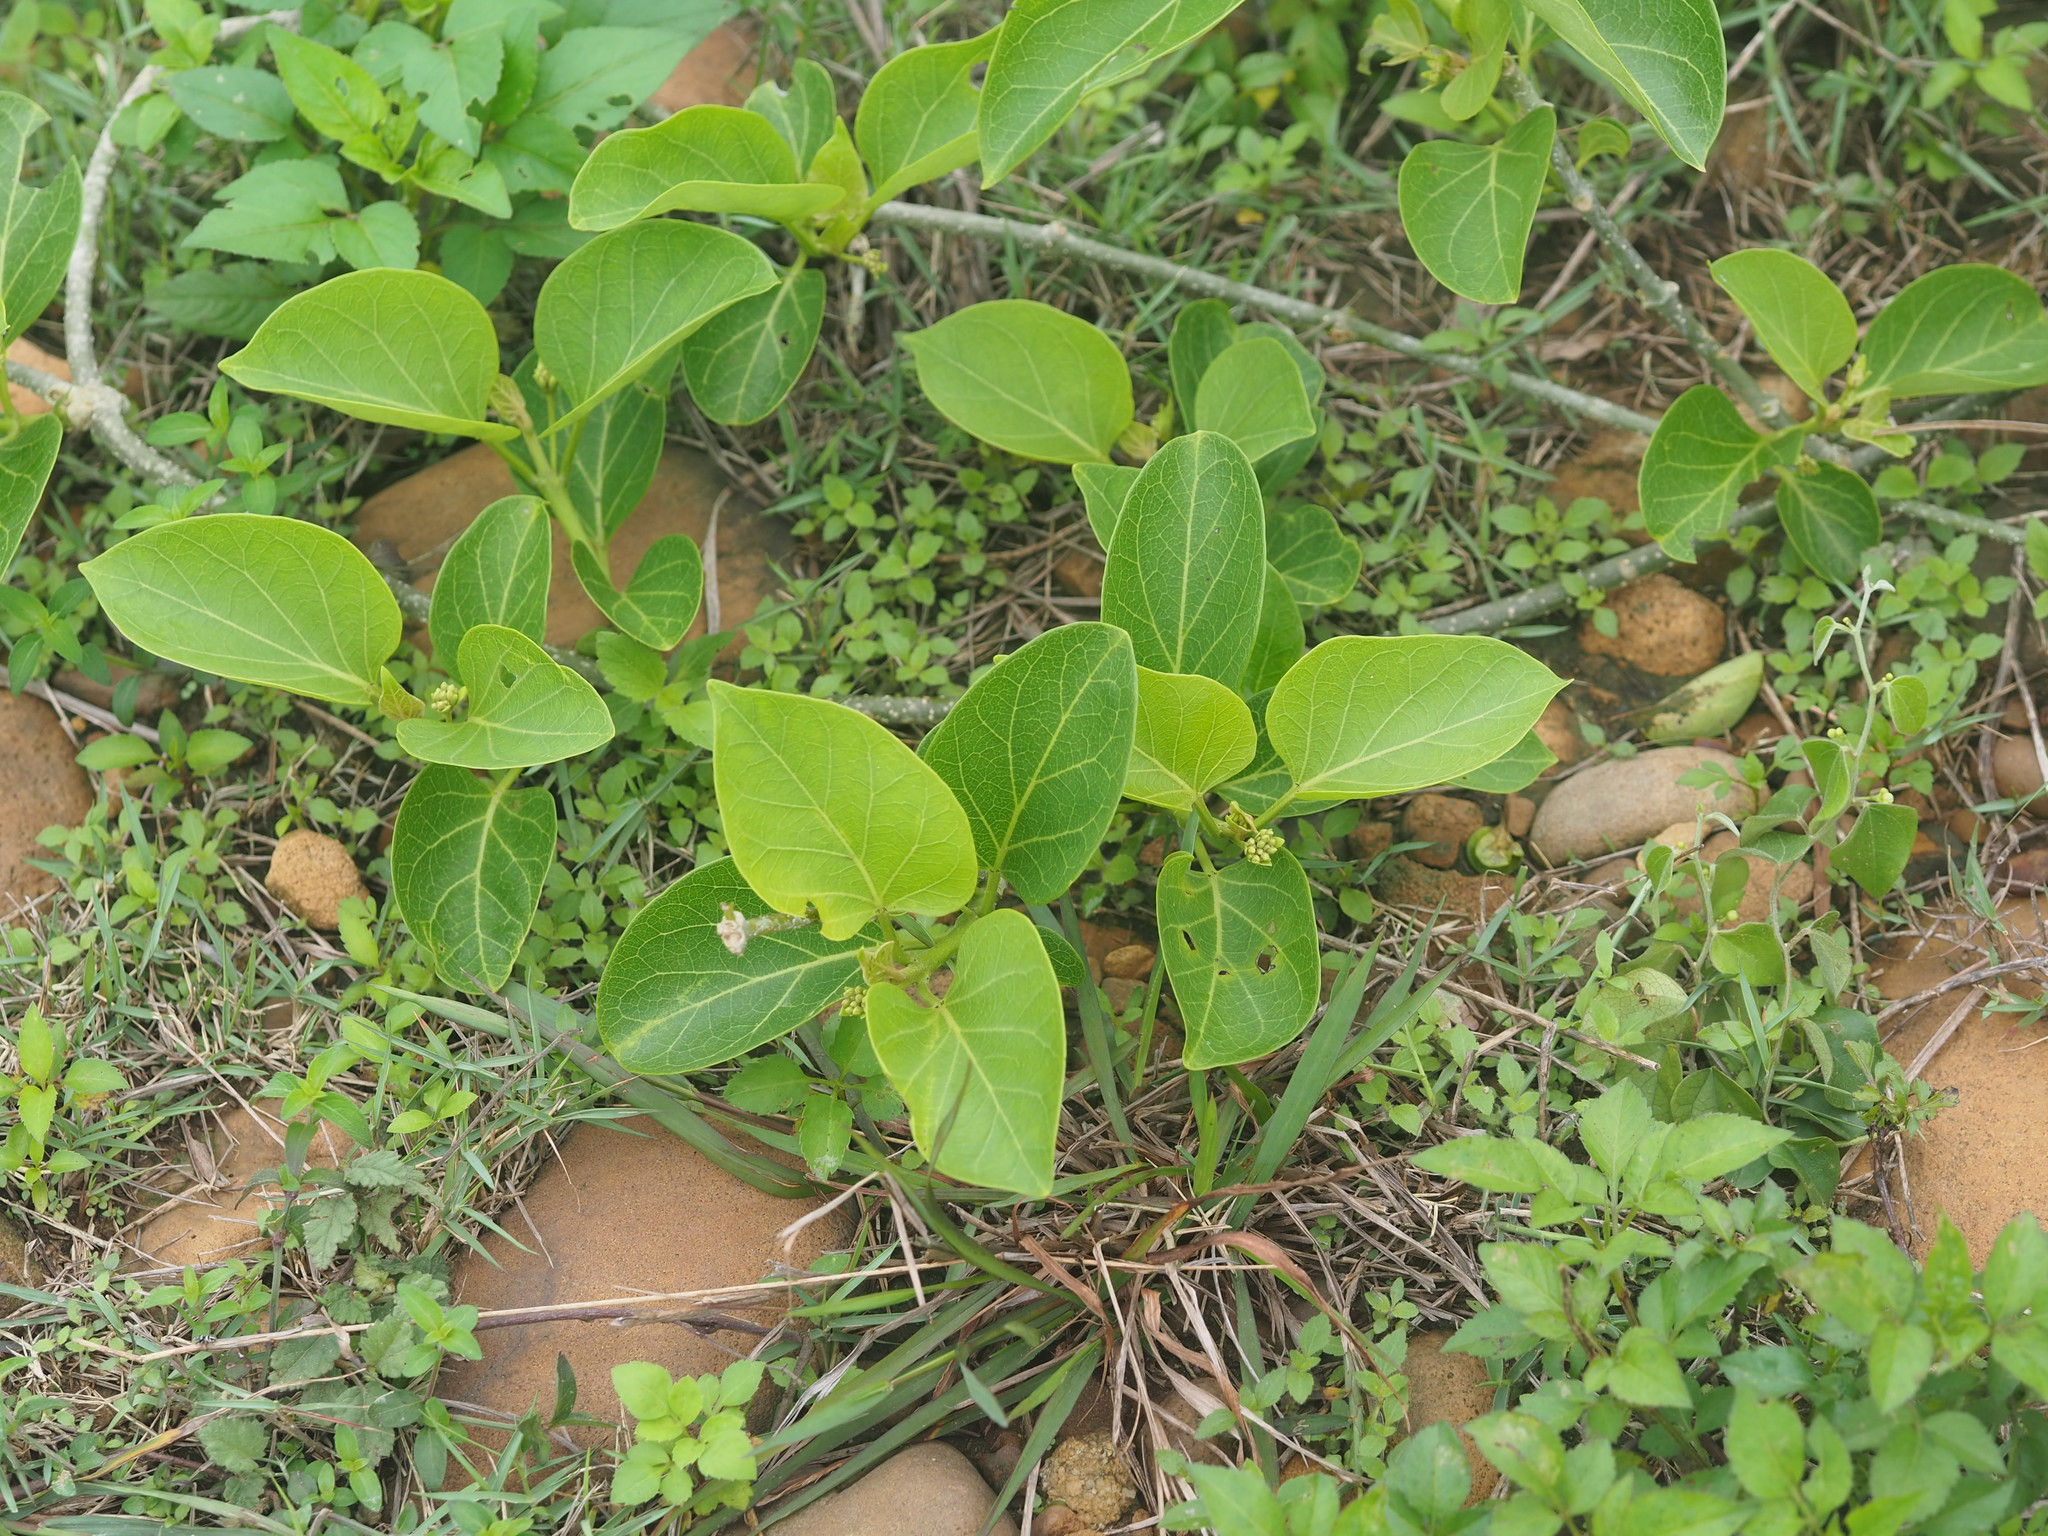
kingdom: Plantae
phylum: Tracheophyta
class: Magnoliopsida
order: Gentianales
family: Apocynaceae
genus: Stephanotis
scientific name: Stephanotis volubilis
